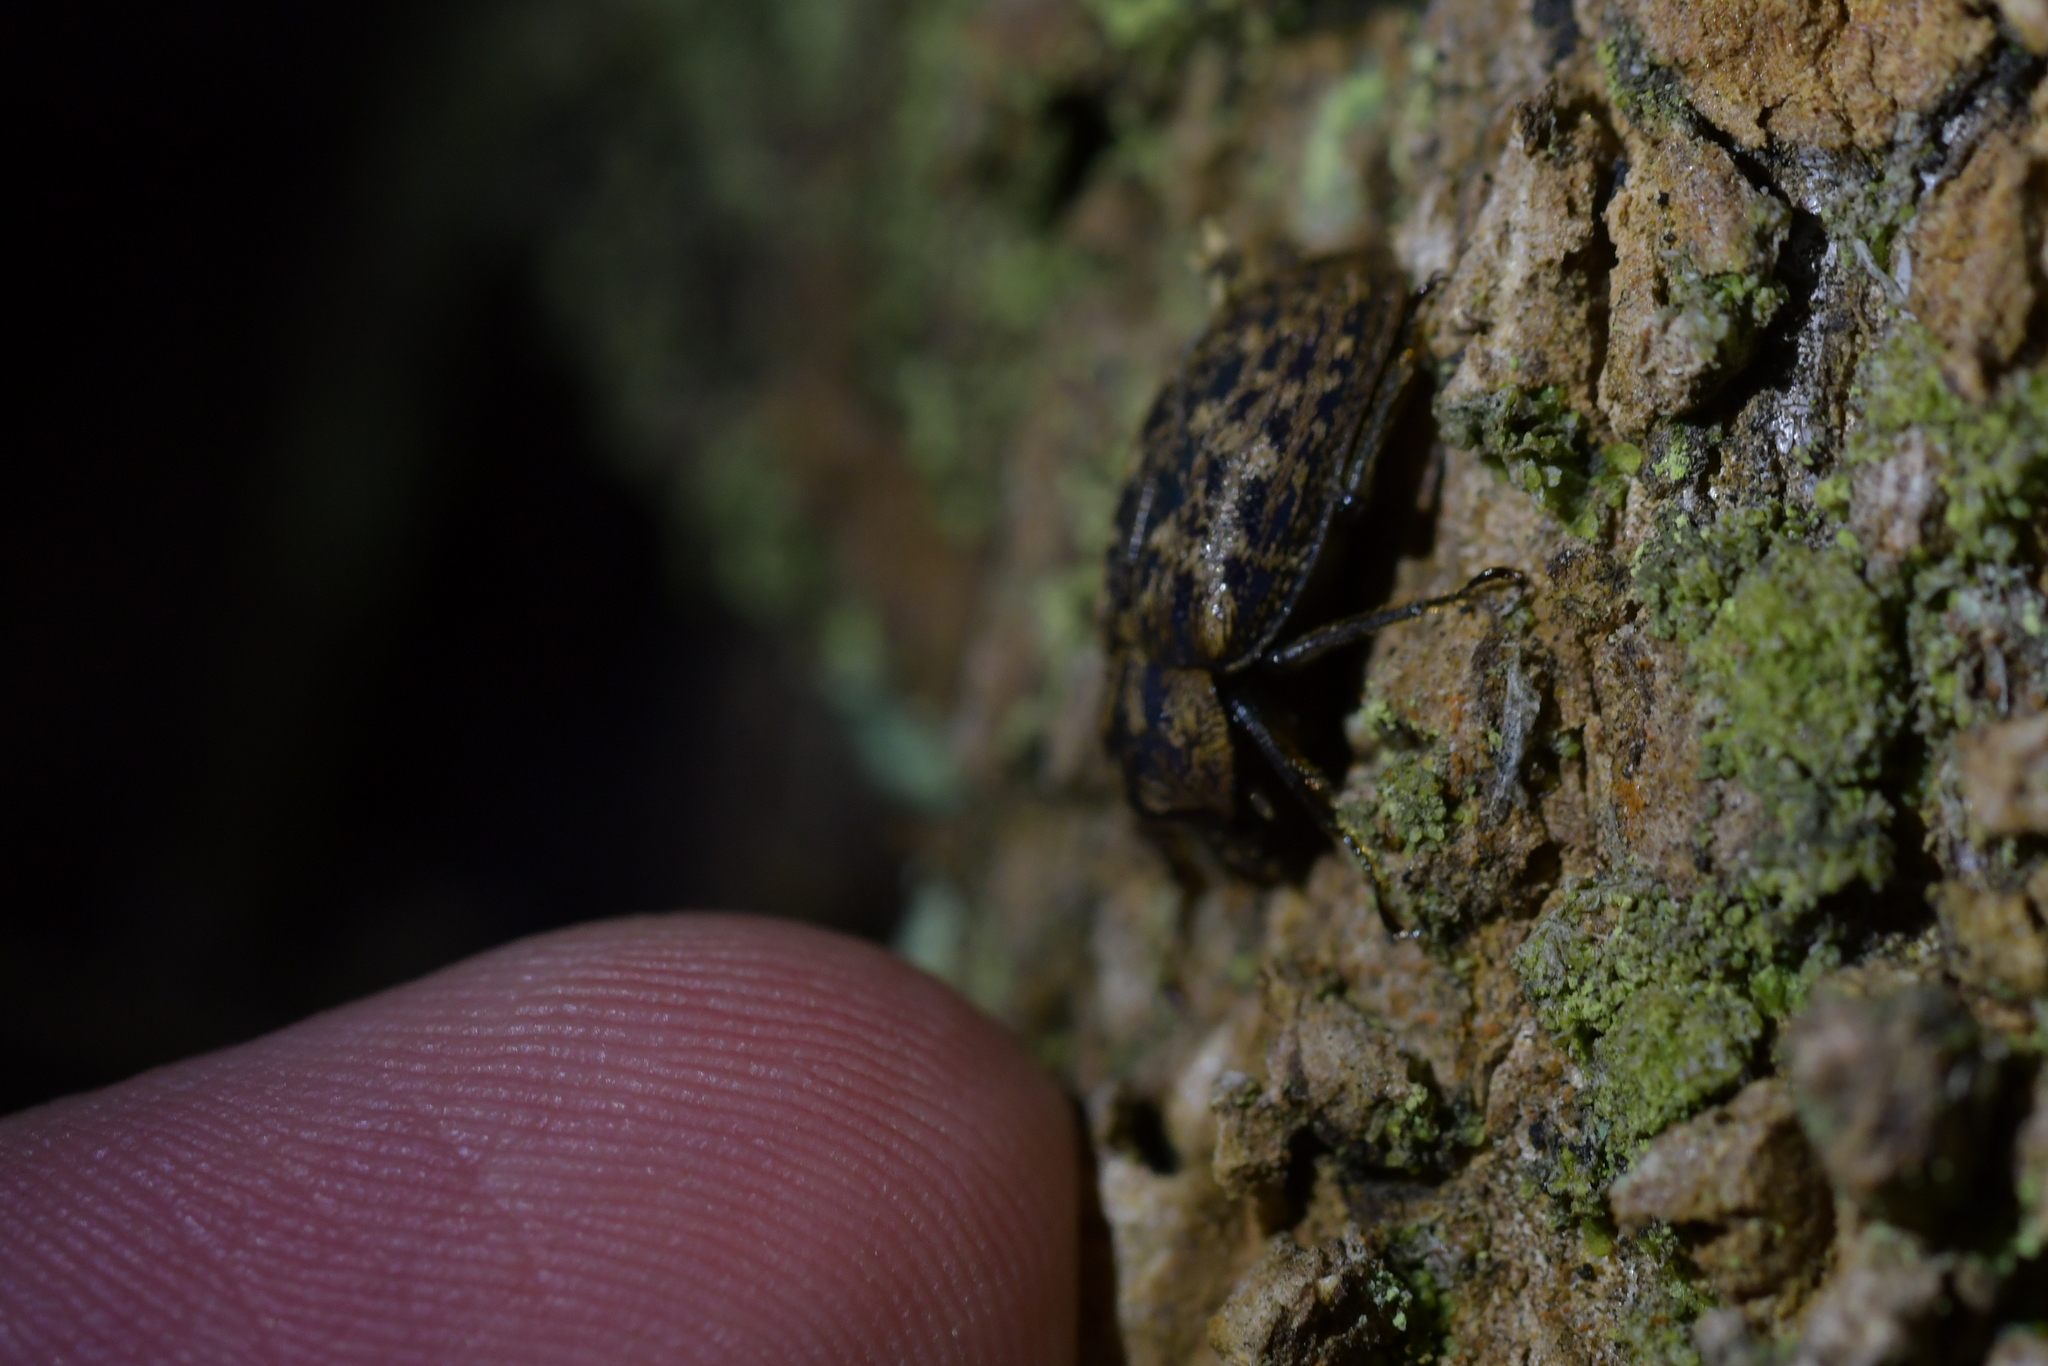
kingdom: Animalia
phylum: Arthropoda
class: Insecta
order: Coleoptera
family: Lucanidae
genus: Mitophyllus
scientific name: Mitophyllus parrianus
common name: Parry's stag beetle
